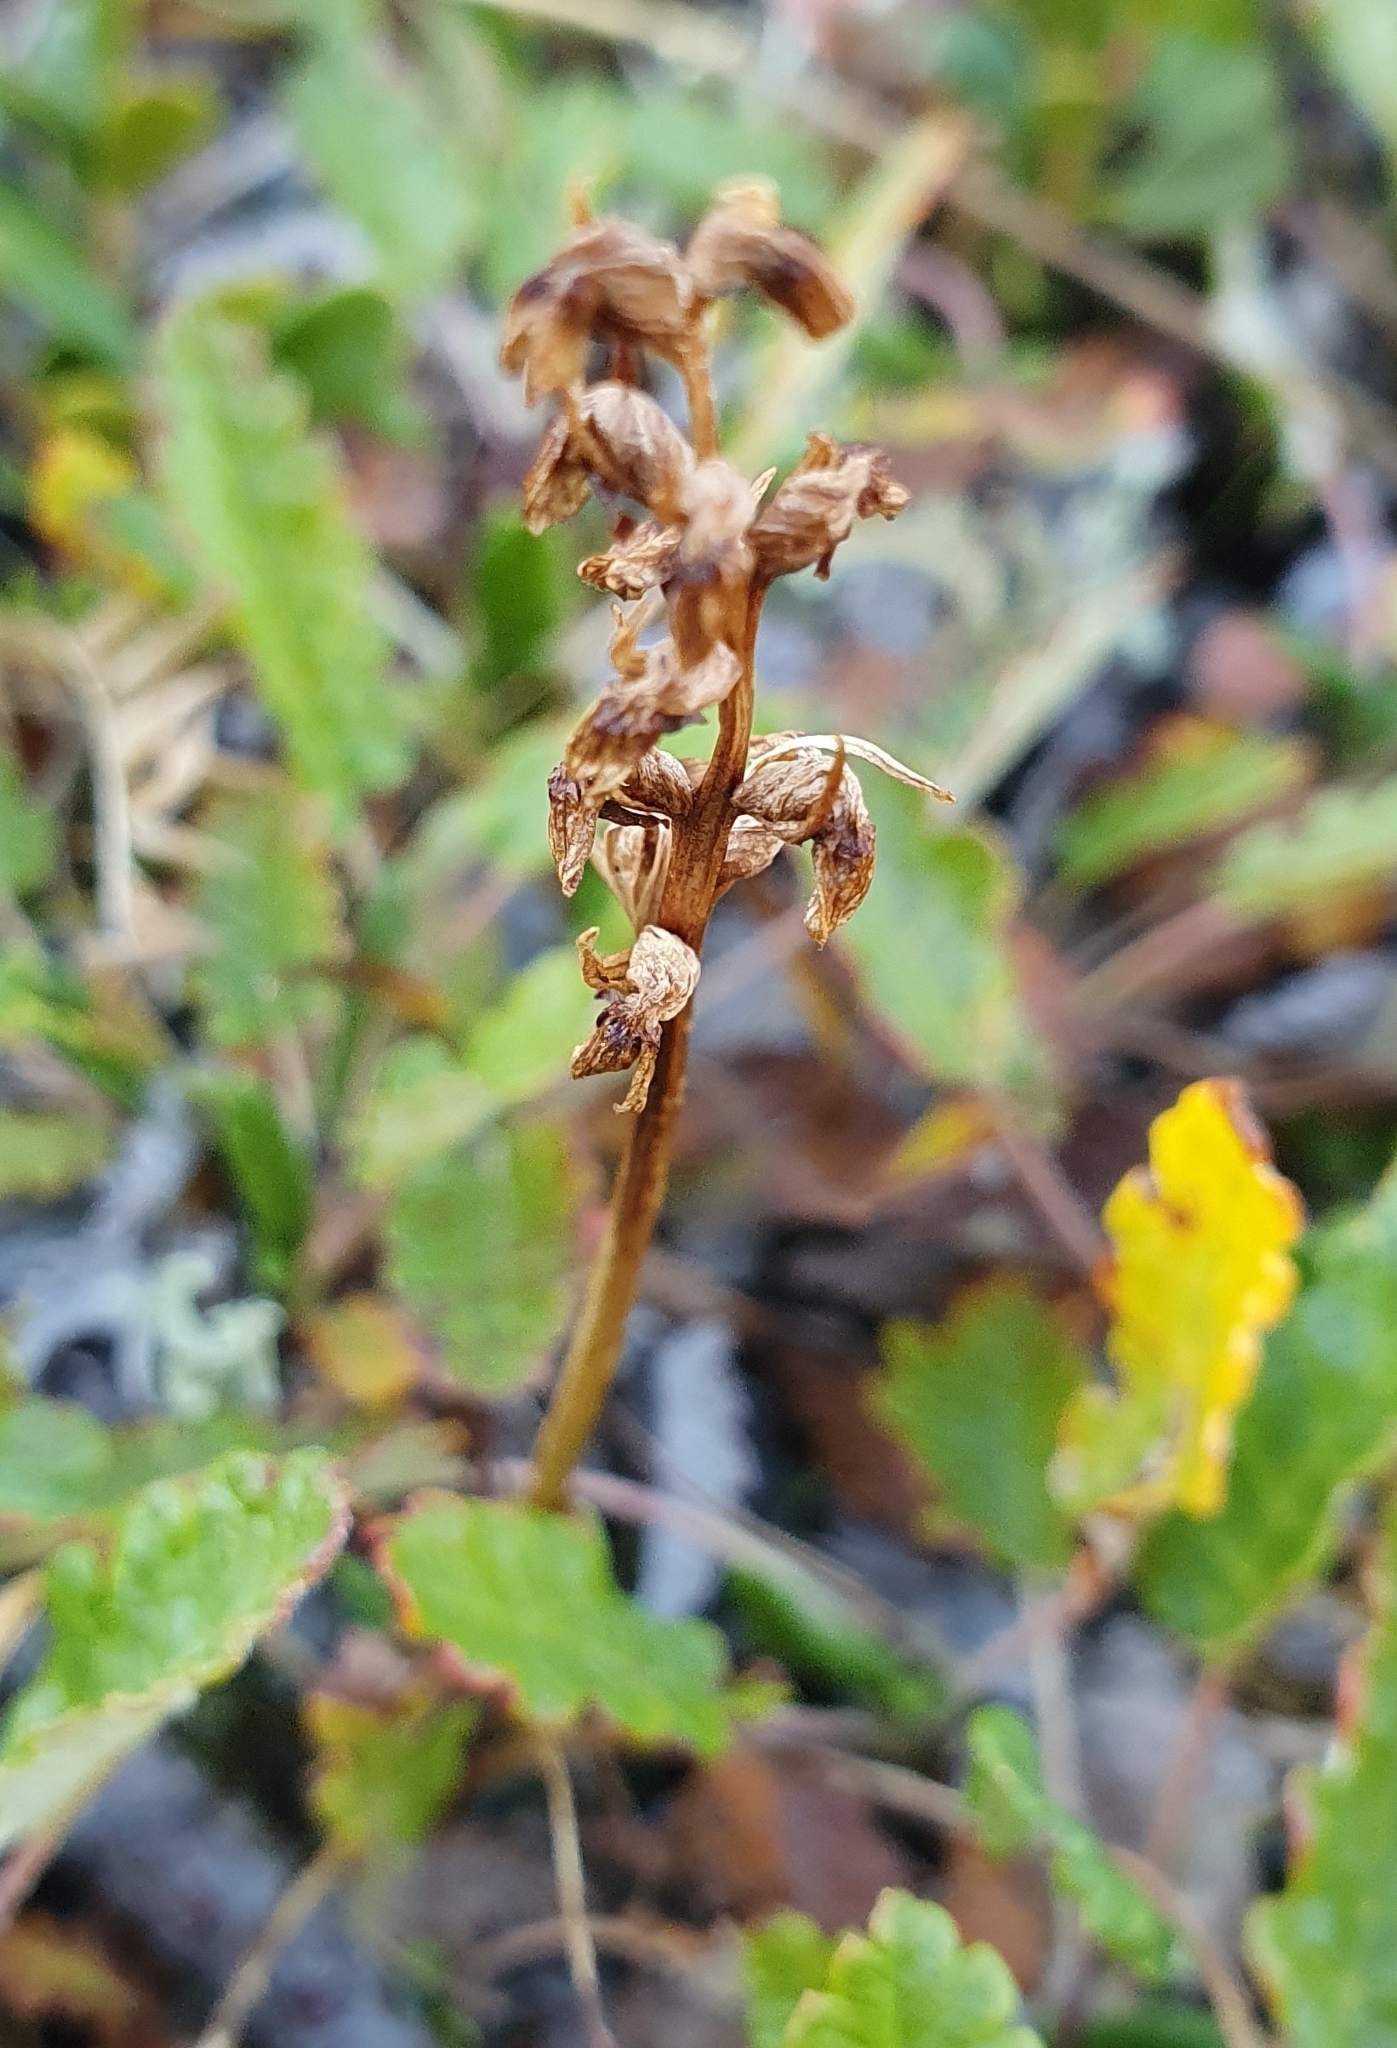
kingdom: Plantae
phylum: Tracheophyta
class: Liliopsida
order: Asparagales
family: Orchidaceae
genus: Chamorchis
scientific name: Chamorchis alpina
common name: Alpine chamorchis
